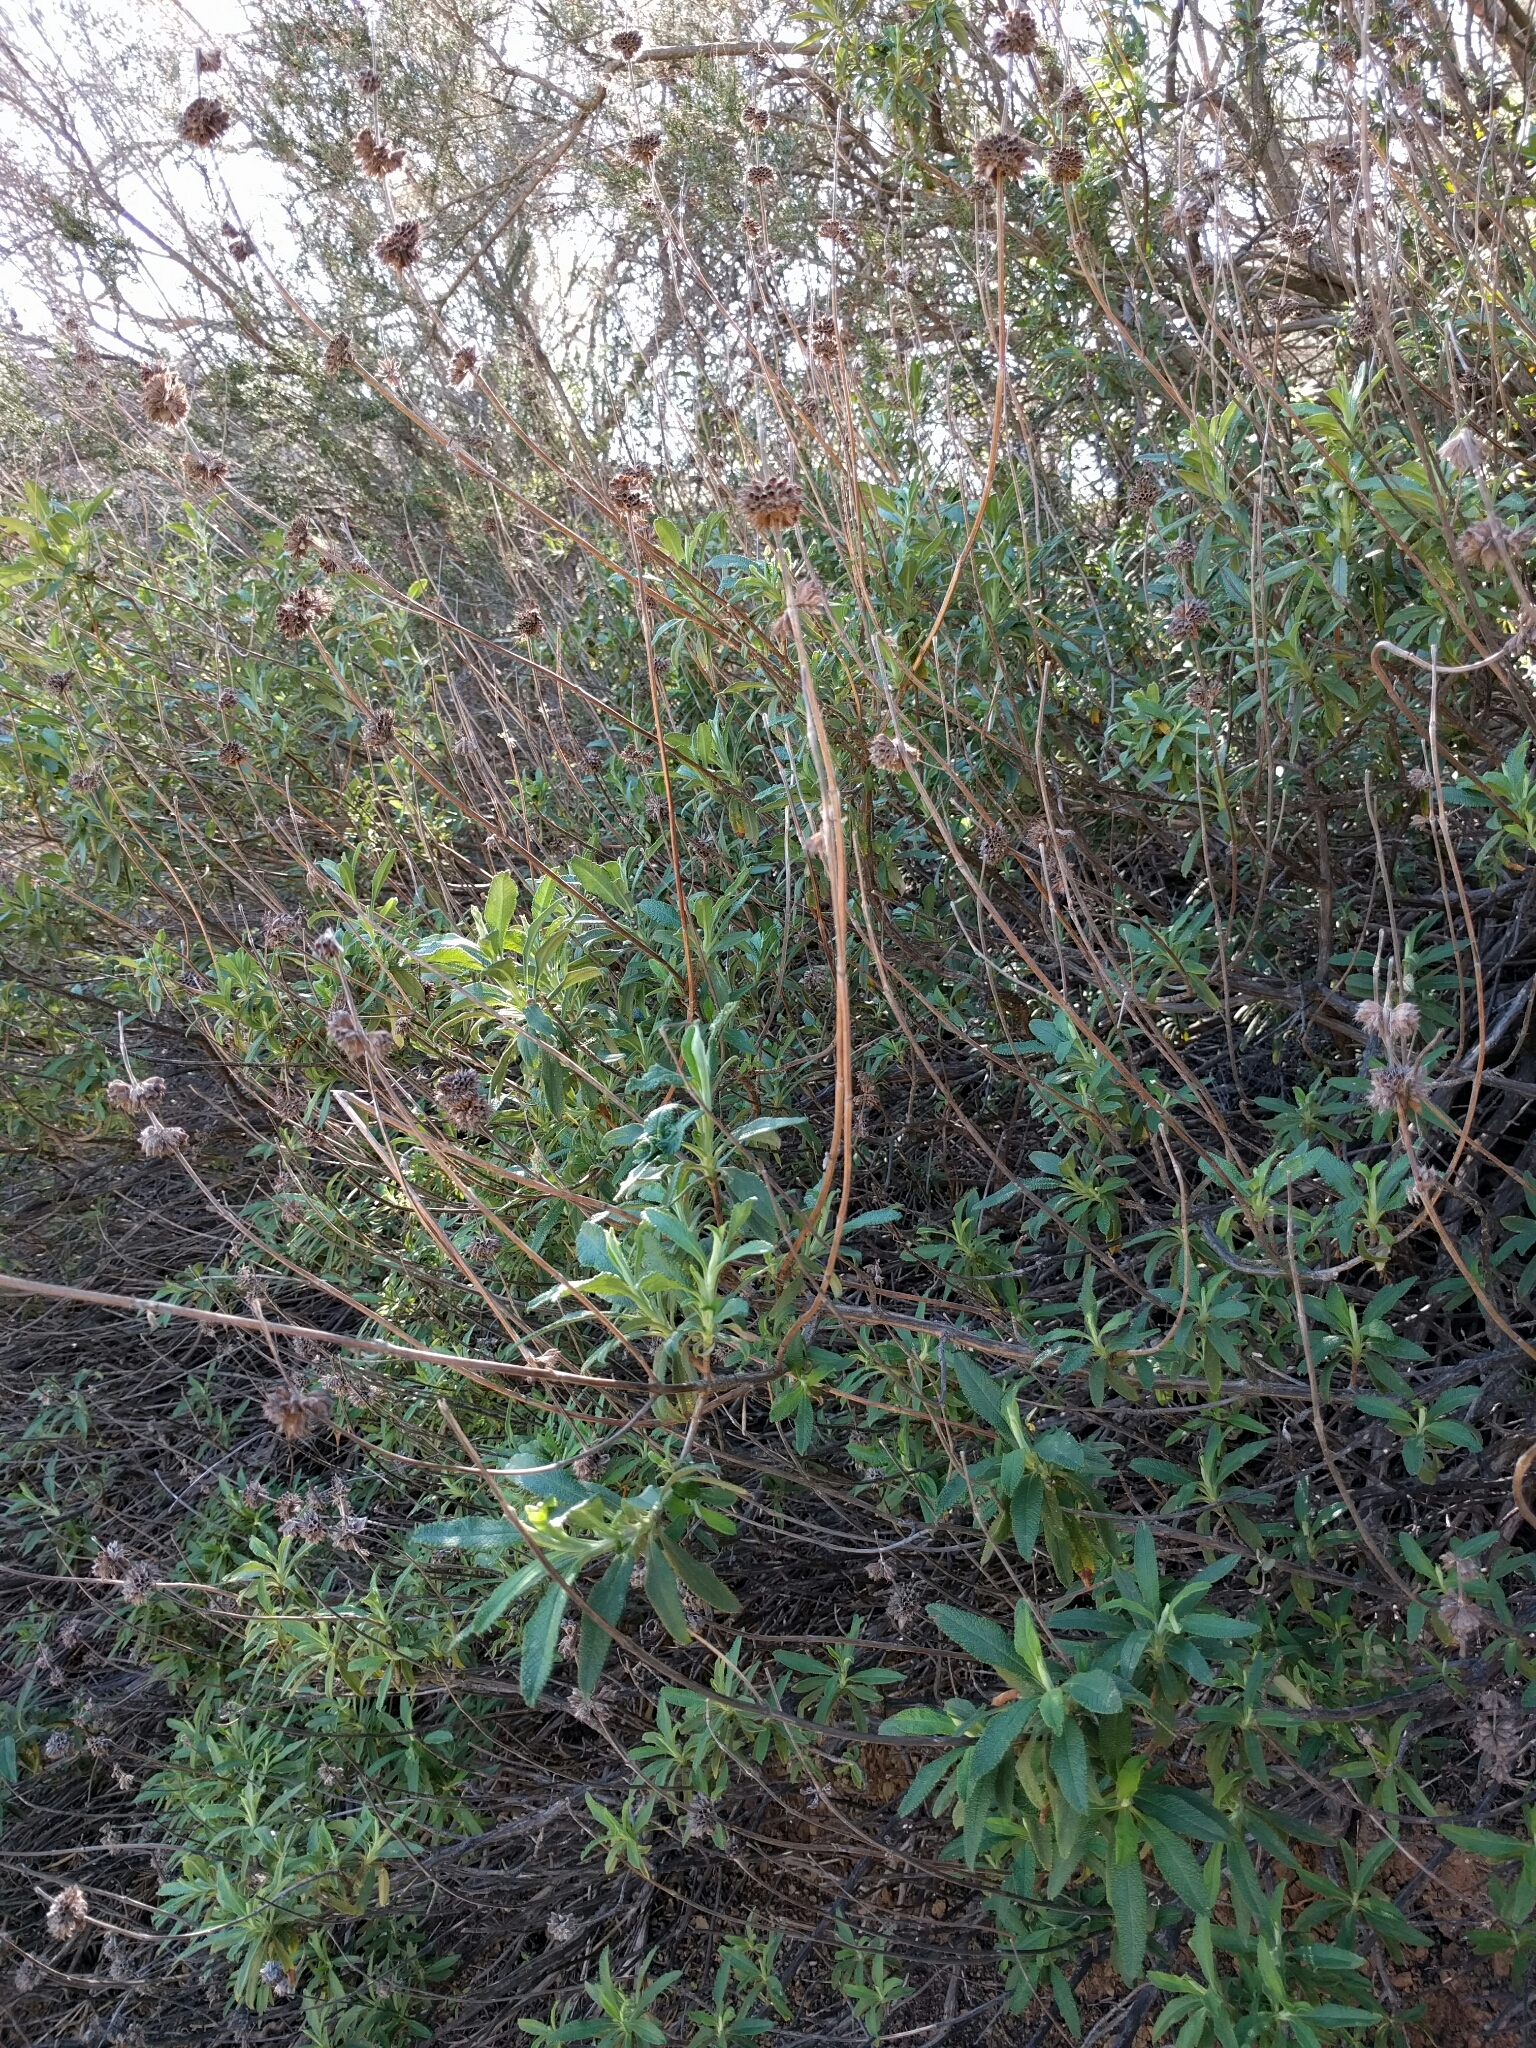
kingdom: Plantae
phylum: Tracheophyta
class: Magnoliopsida
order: Lamiales
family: Lamiaceae
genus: Salvia
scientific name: Salvia mellifera
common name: Black sage
